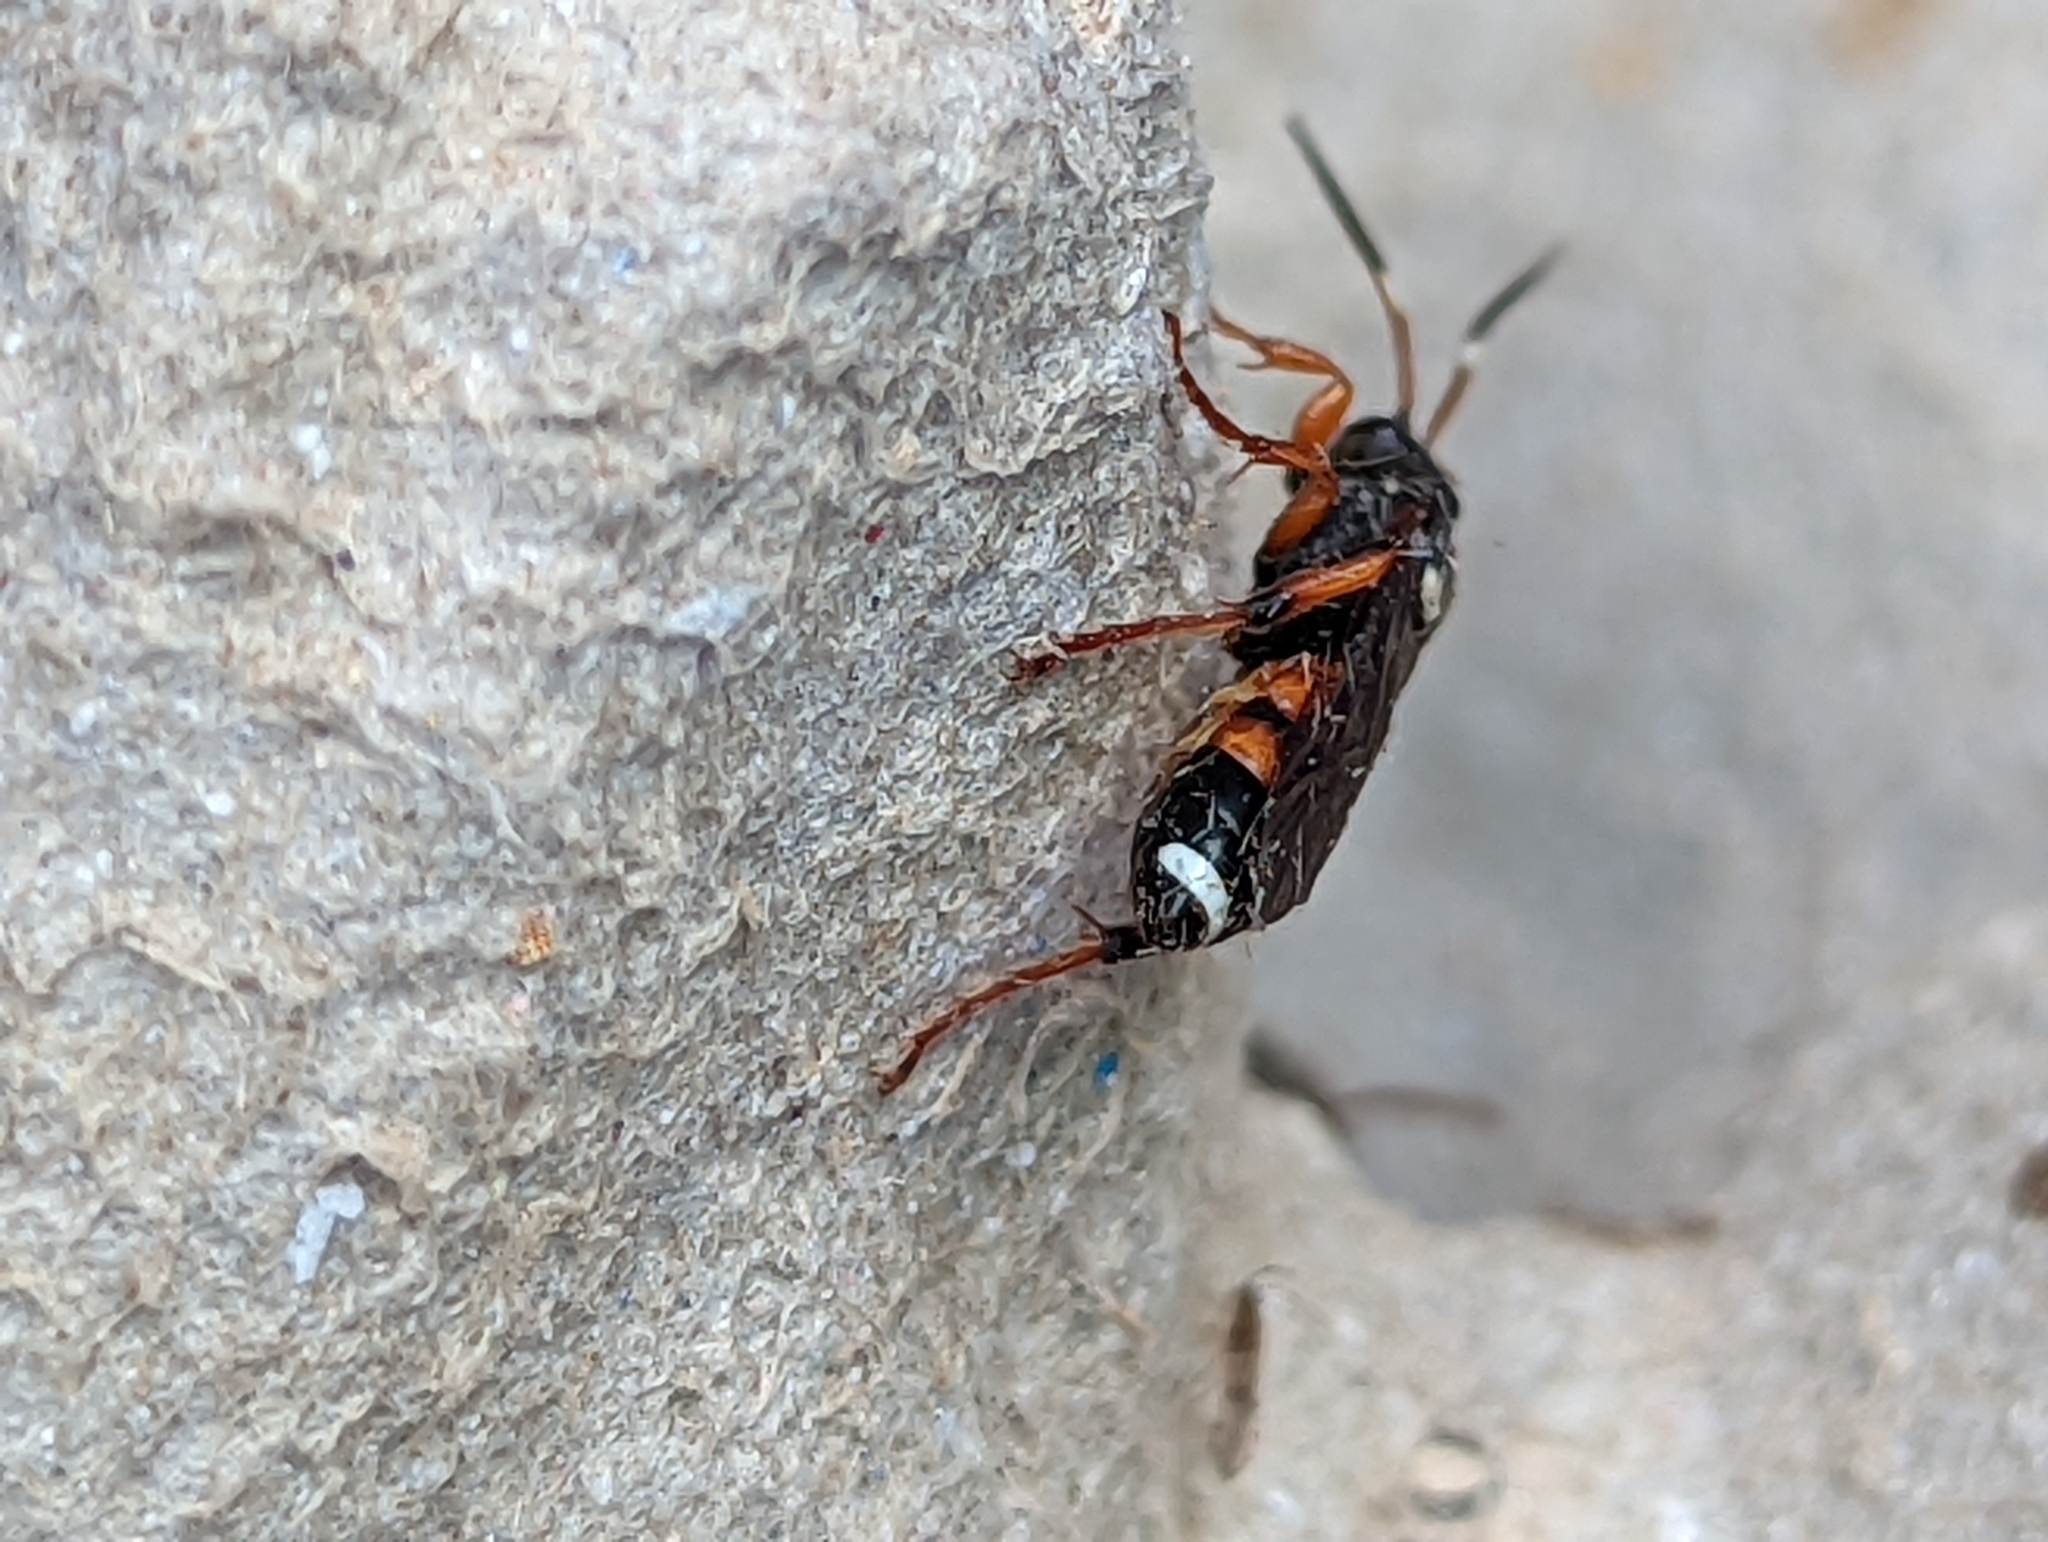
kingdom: Animalia
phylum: Arthropoda
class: Insecta
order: Hymenoptera
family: Ichneumonidae
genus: Ichneumon
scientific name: Ichneumon sarcitorius
